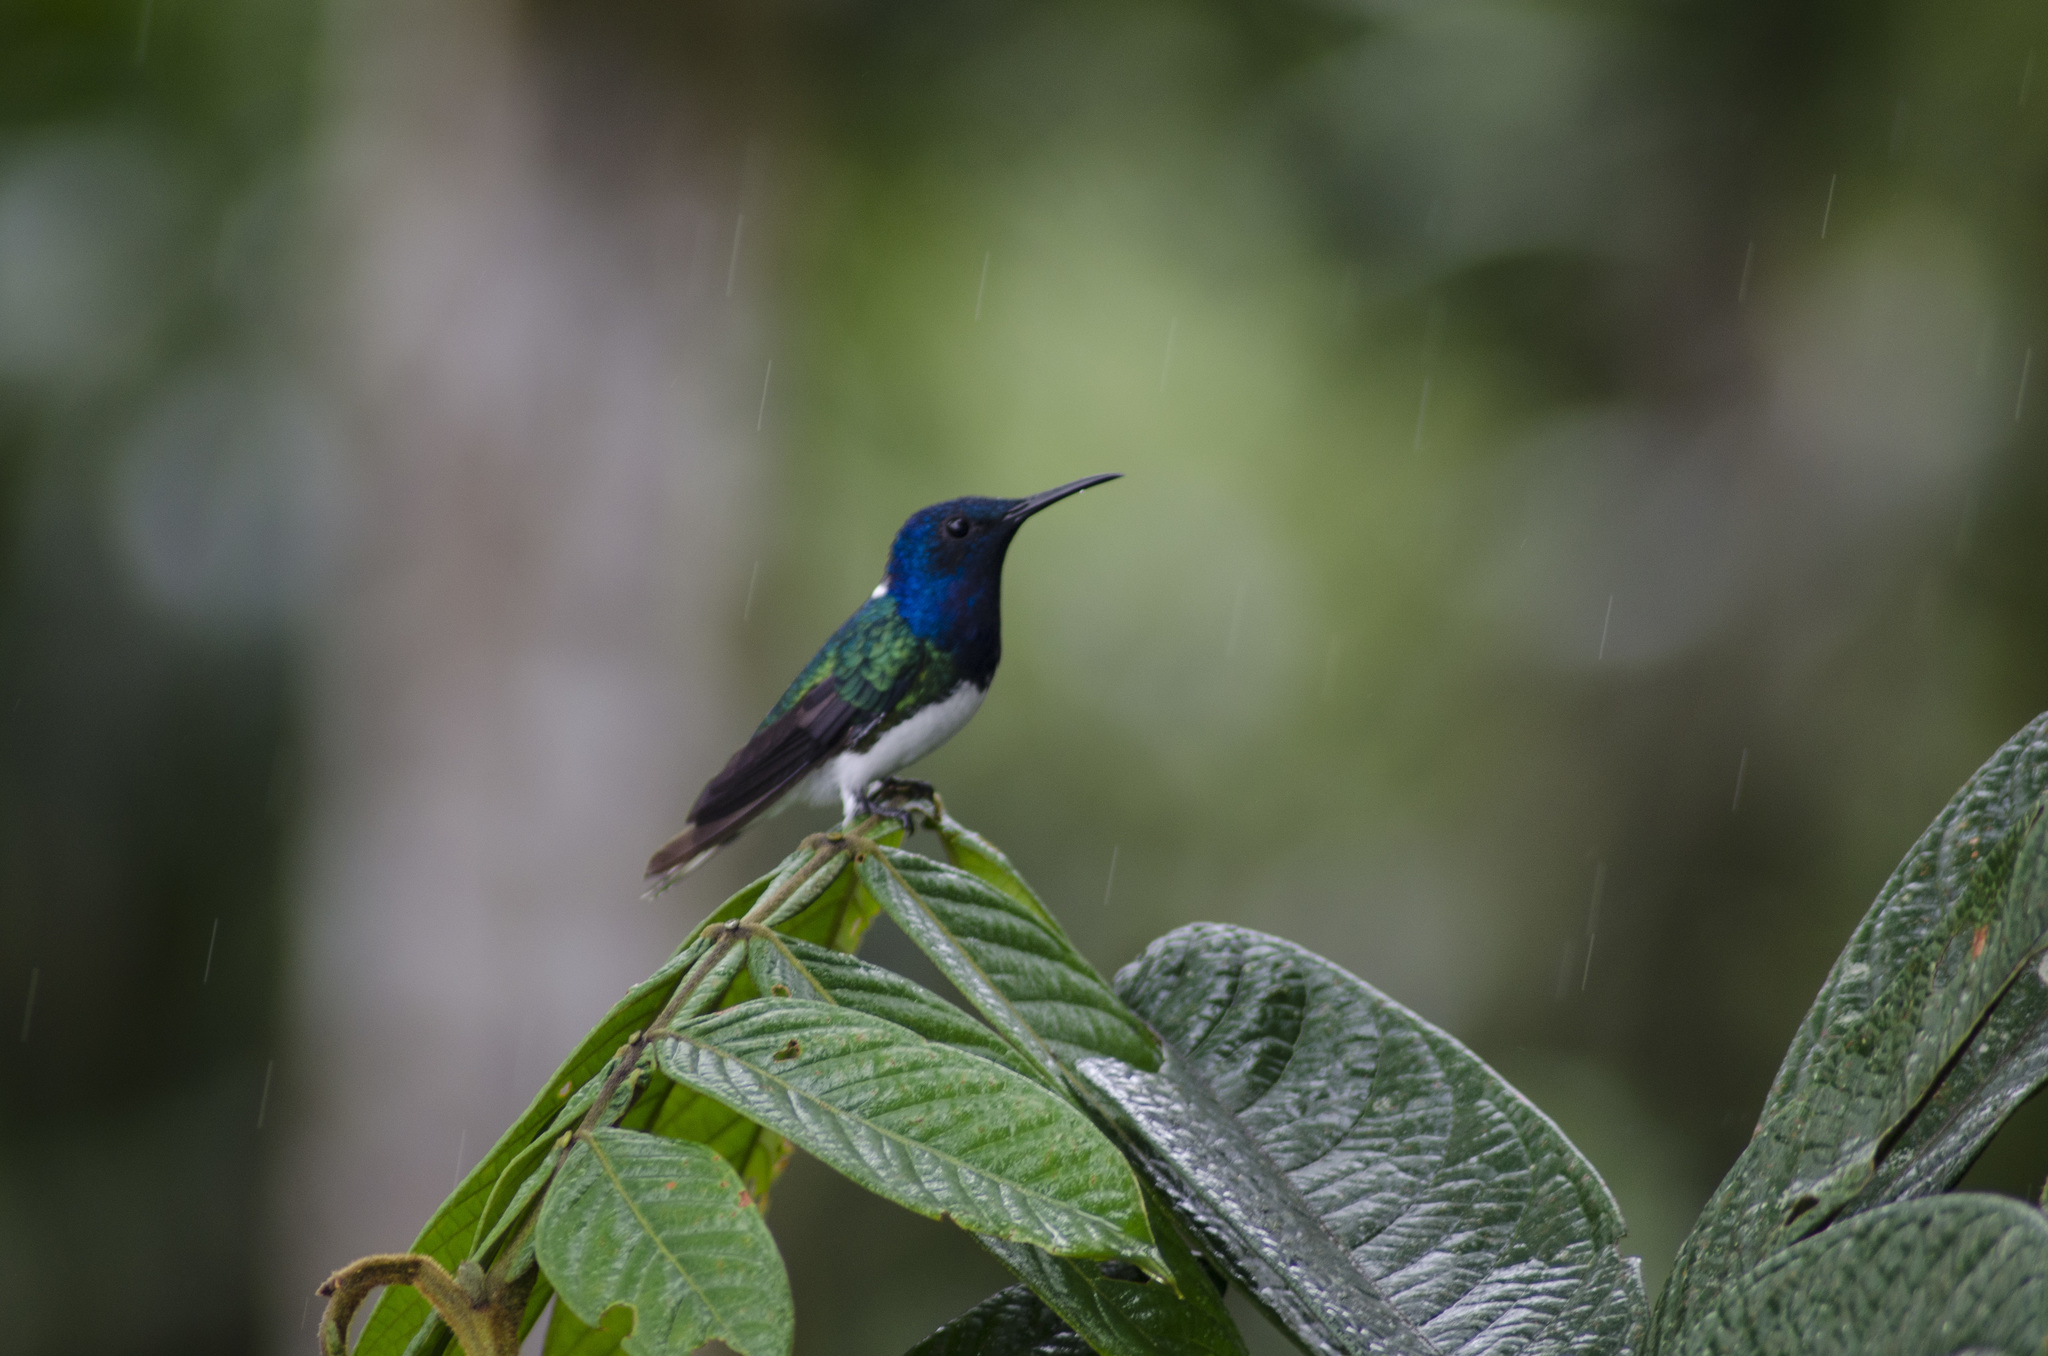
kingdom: Animalia
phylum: Chordata
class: Aves
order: Apodiformes
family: Trochilidae
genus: Florisuga
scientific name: Florisuga mellivora
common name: White-necked jacobin
